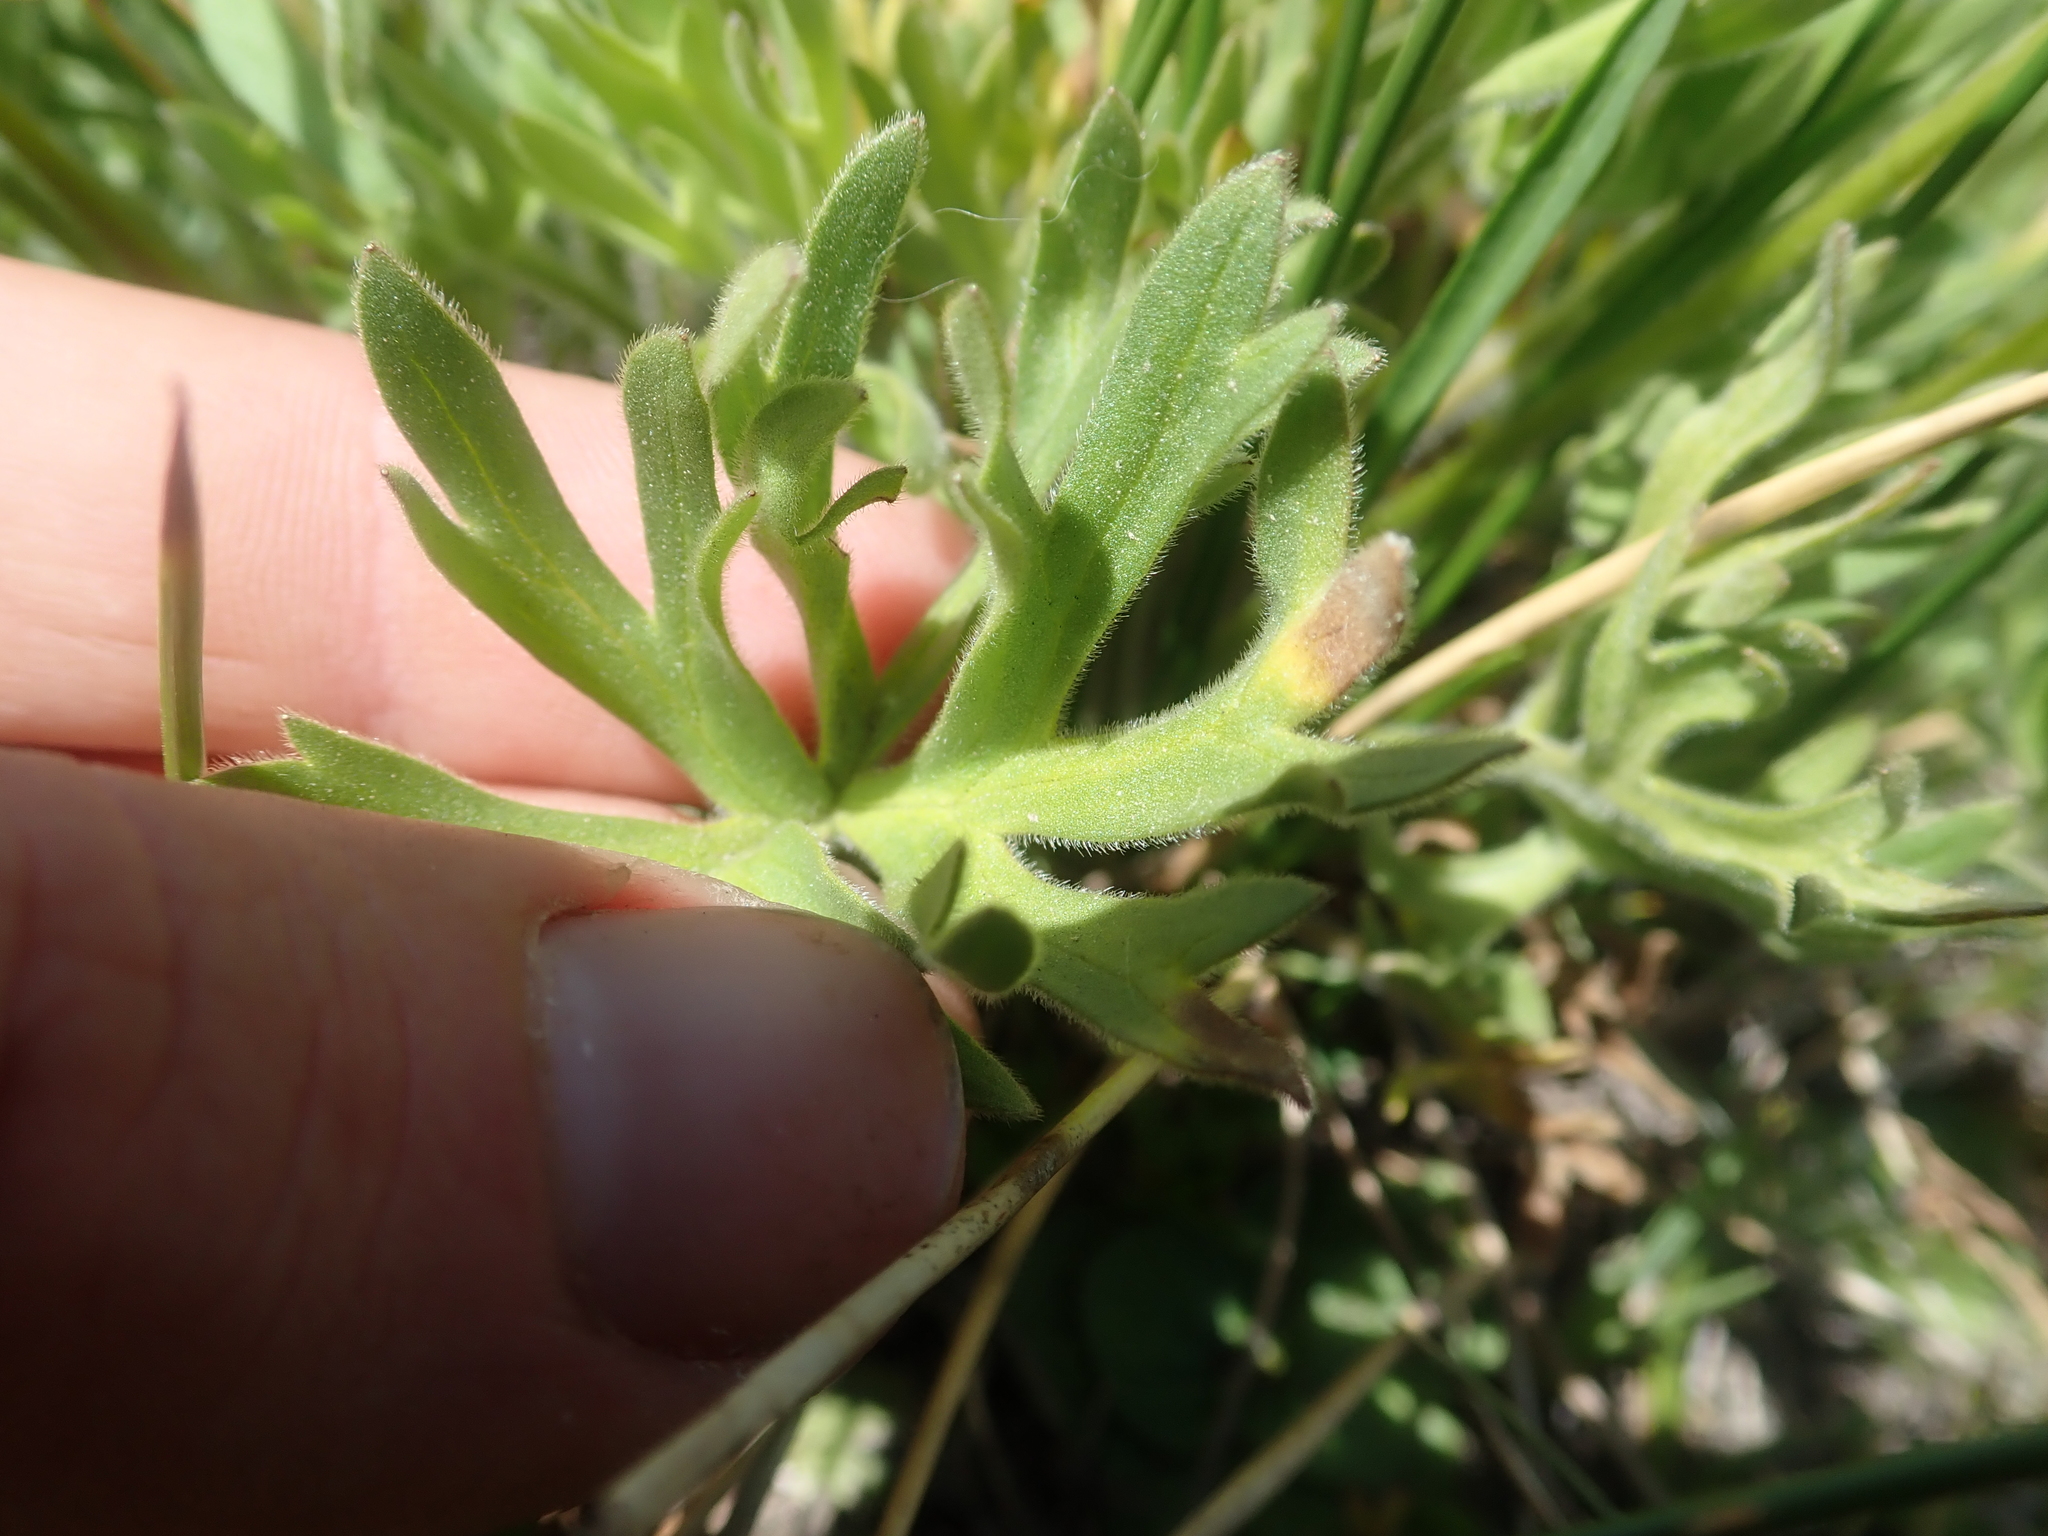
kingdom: Plantae
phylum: Tracheophyta
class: Magnoliopsida
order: Ranunculales
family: Ranunculaceae
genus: Ranunculus
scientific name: Ranunculus peduncularis
